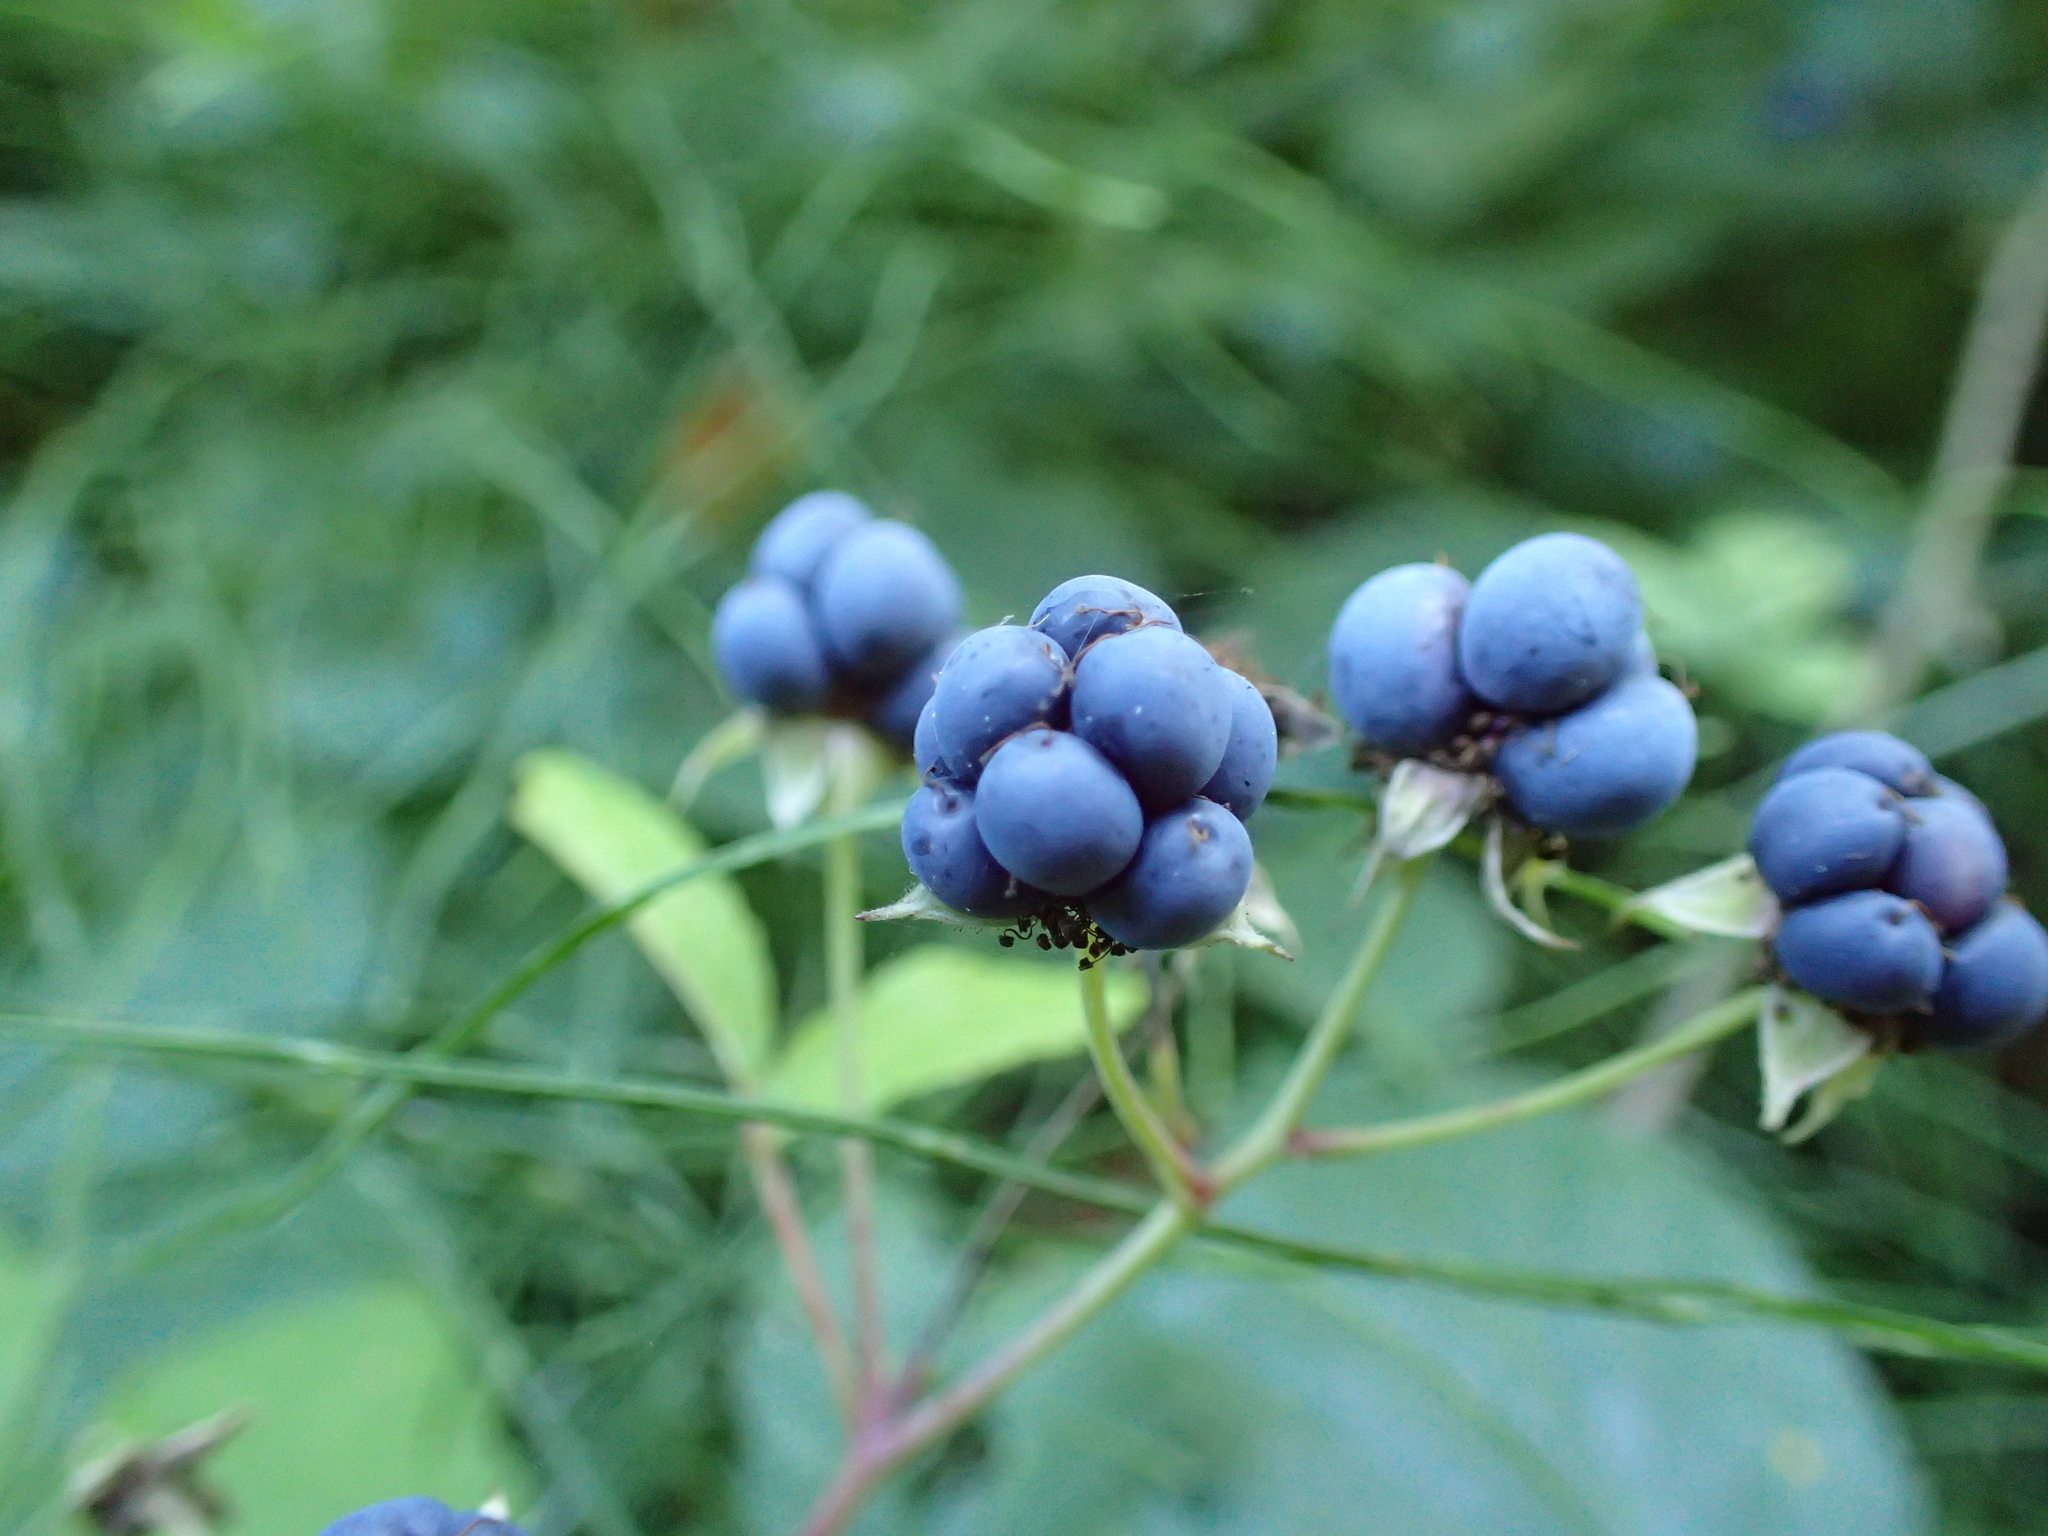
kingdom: Plantae
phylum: Tracheophyta
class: Magnoliopsida
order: Rosales
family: Rosaceae
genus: Rubus
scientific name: Rubus caesius
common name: Dewberry
